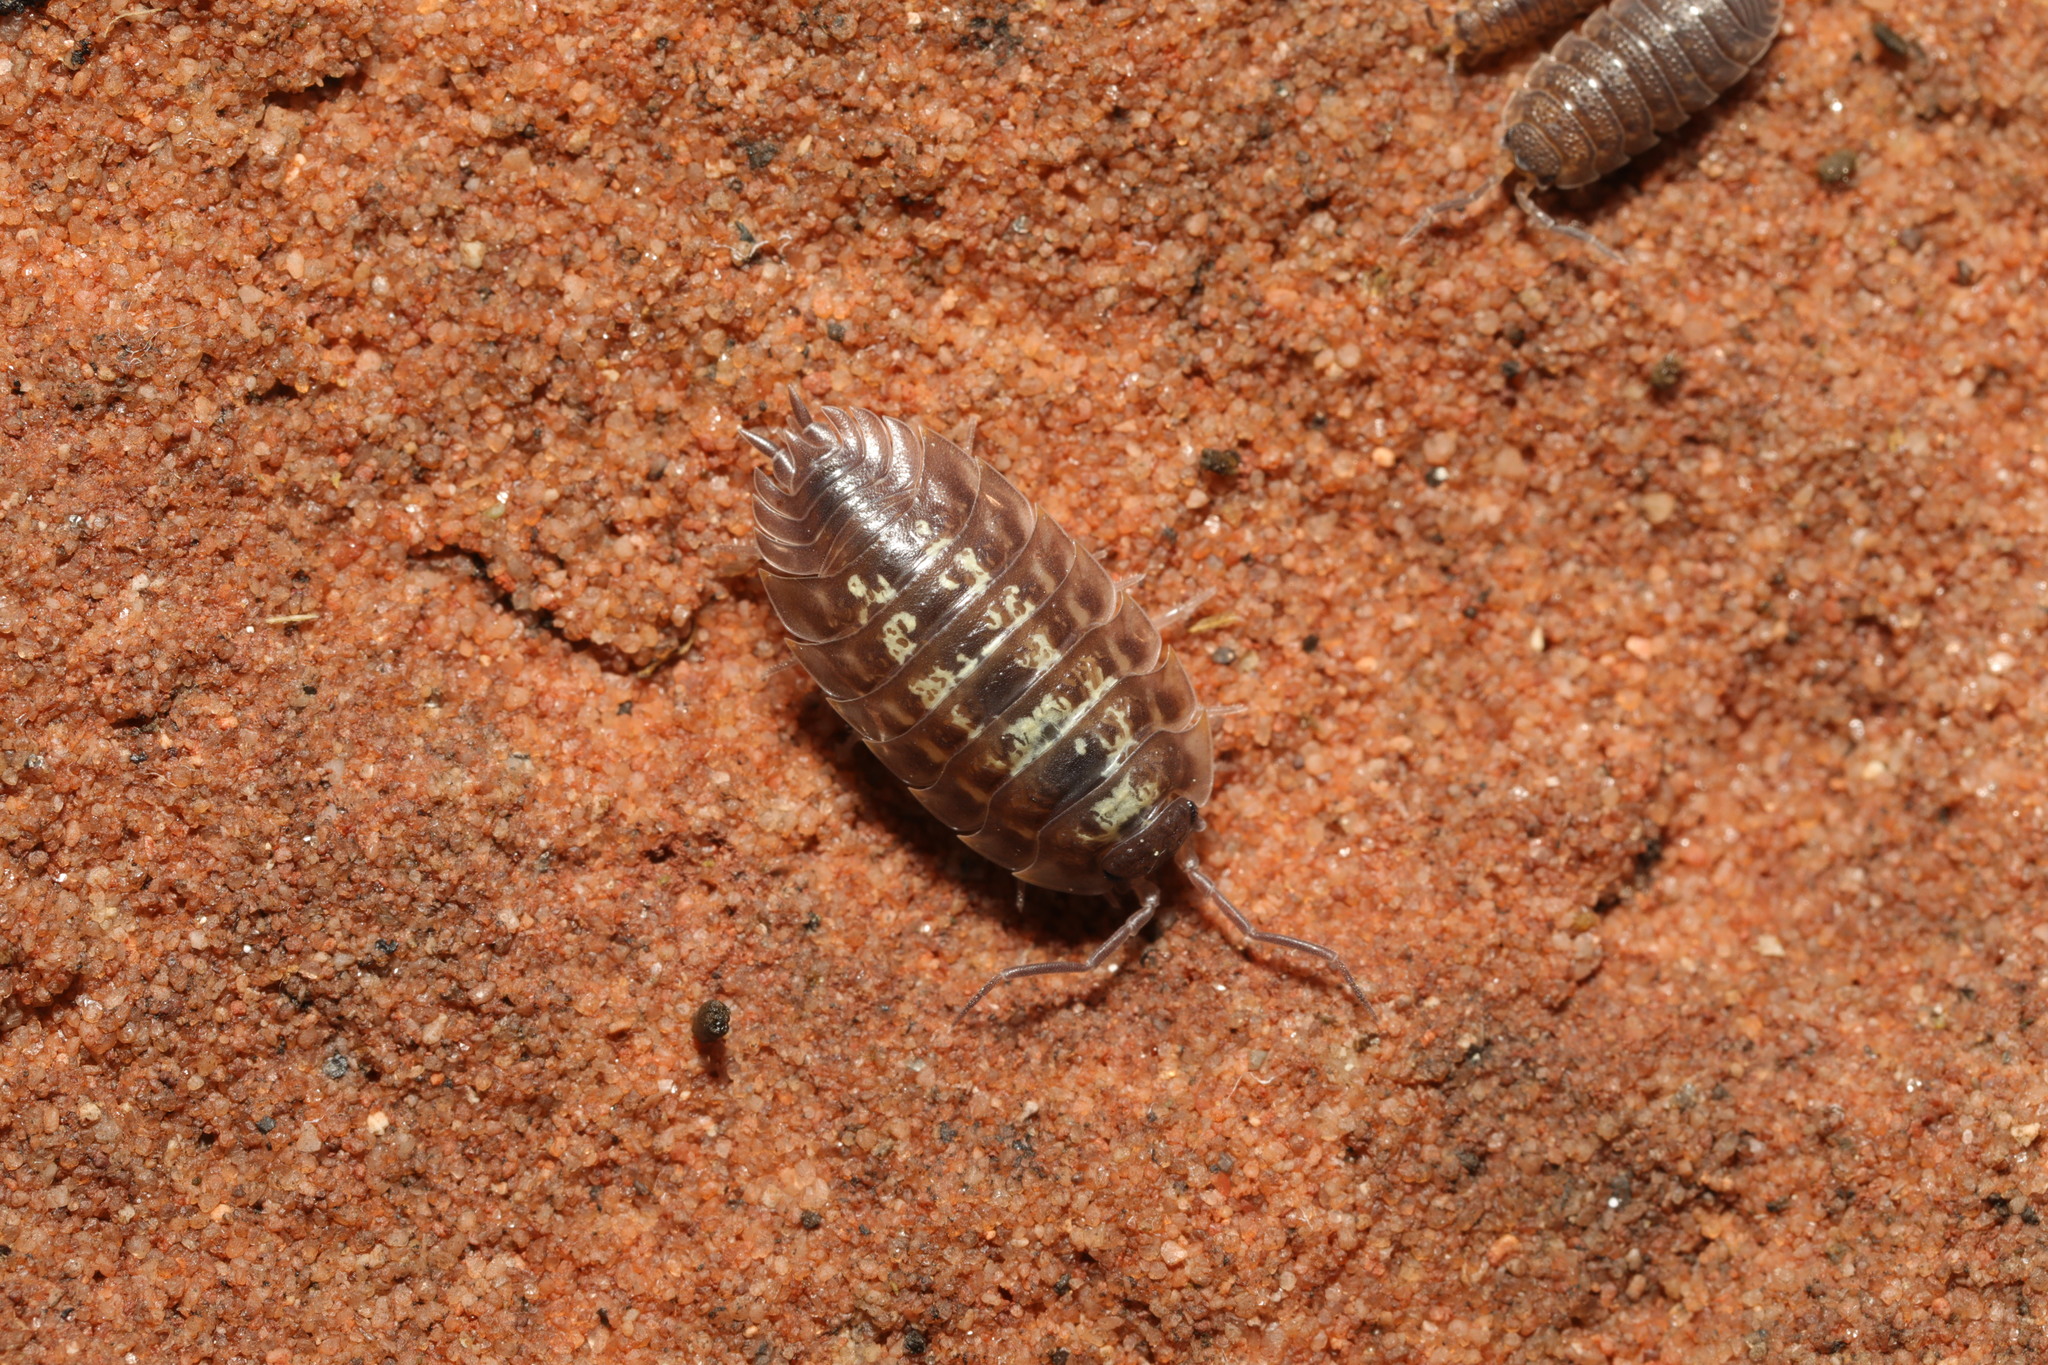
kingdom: Animalia
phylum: Arthropoda
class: Malacostraca
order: Isopoda
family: Oniscidae
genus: Oniscus
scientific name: Oniscus asellus
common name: Common shiny woodlouse
